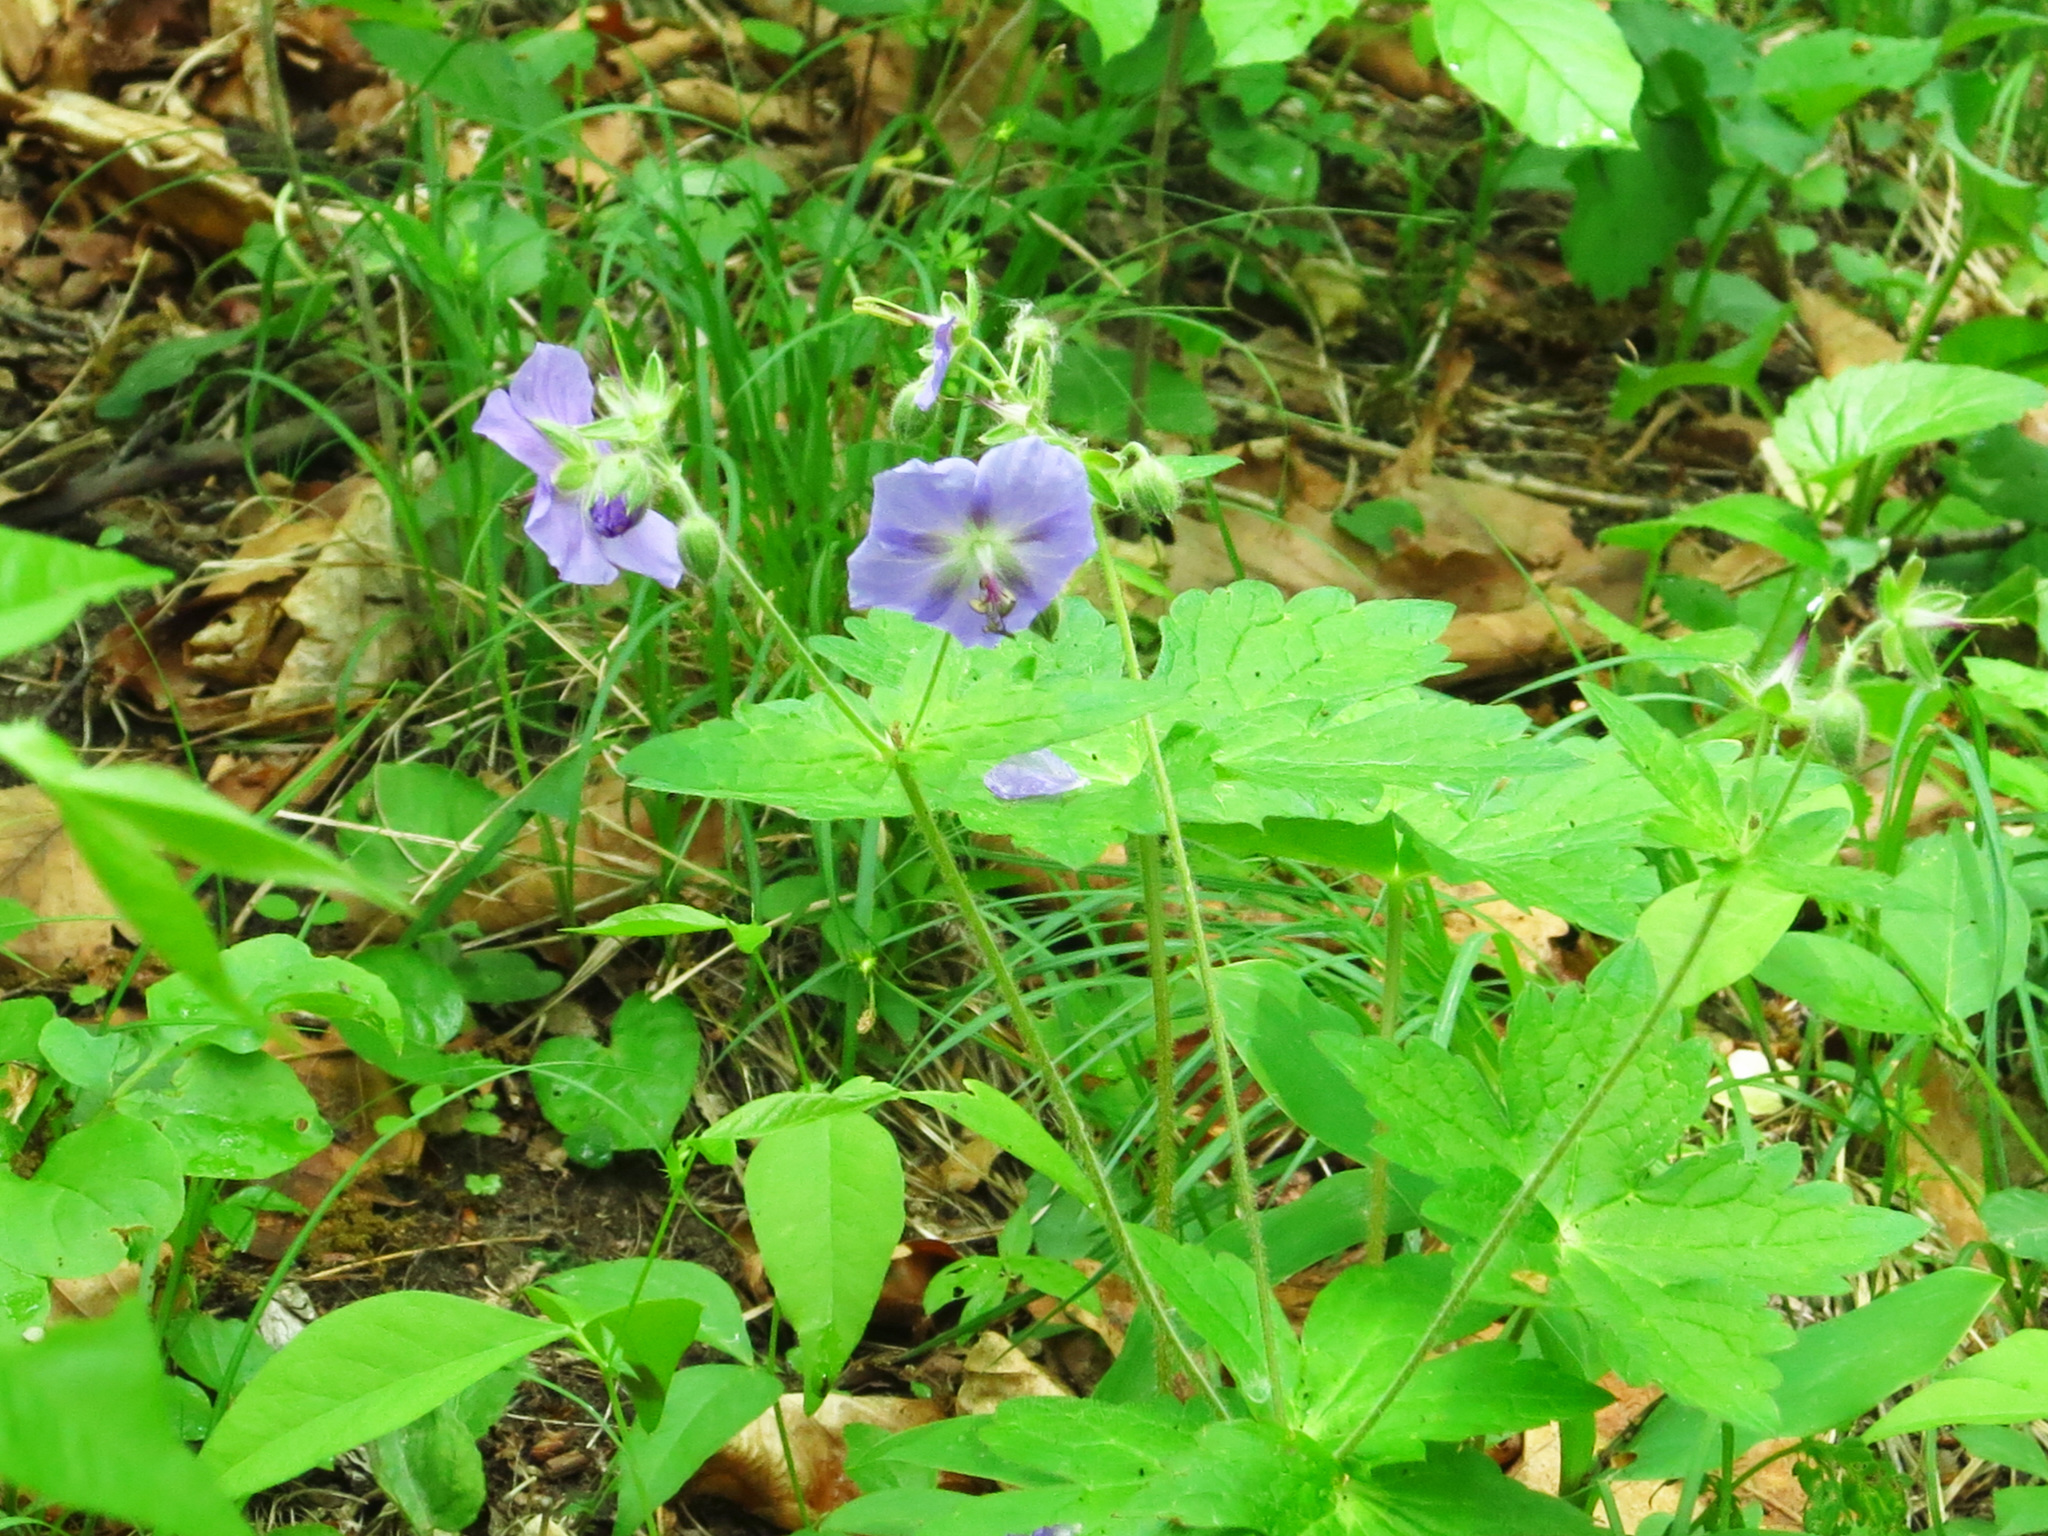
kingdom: Plantae
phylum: Tracheophyta
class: Magnoliopsida
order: Geraniales
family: Geraniaceae
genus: Geranium
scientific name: Geranium platyanthum
